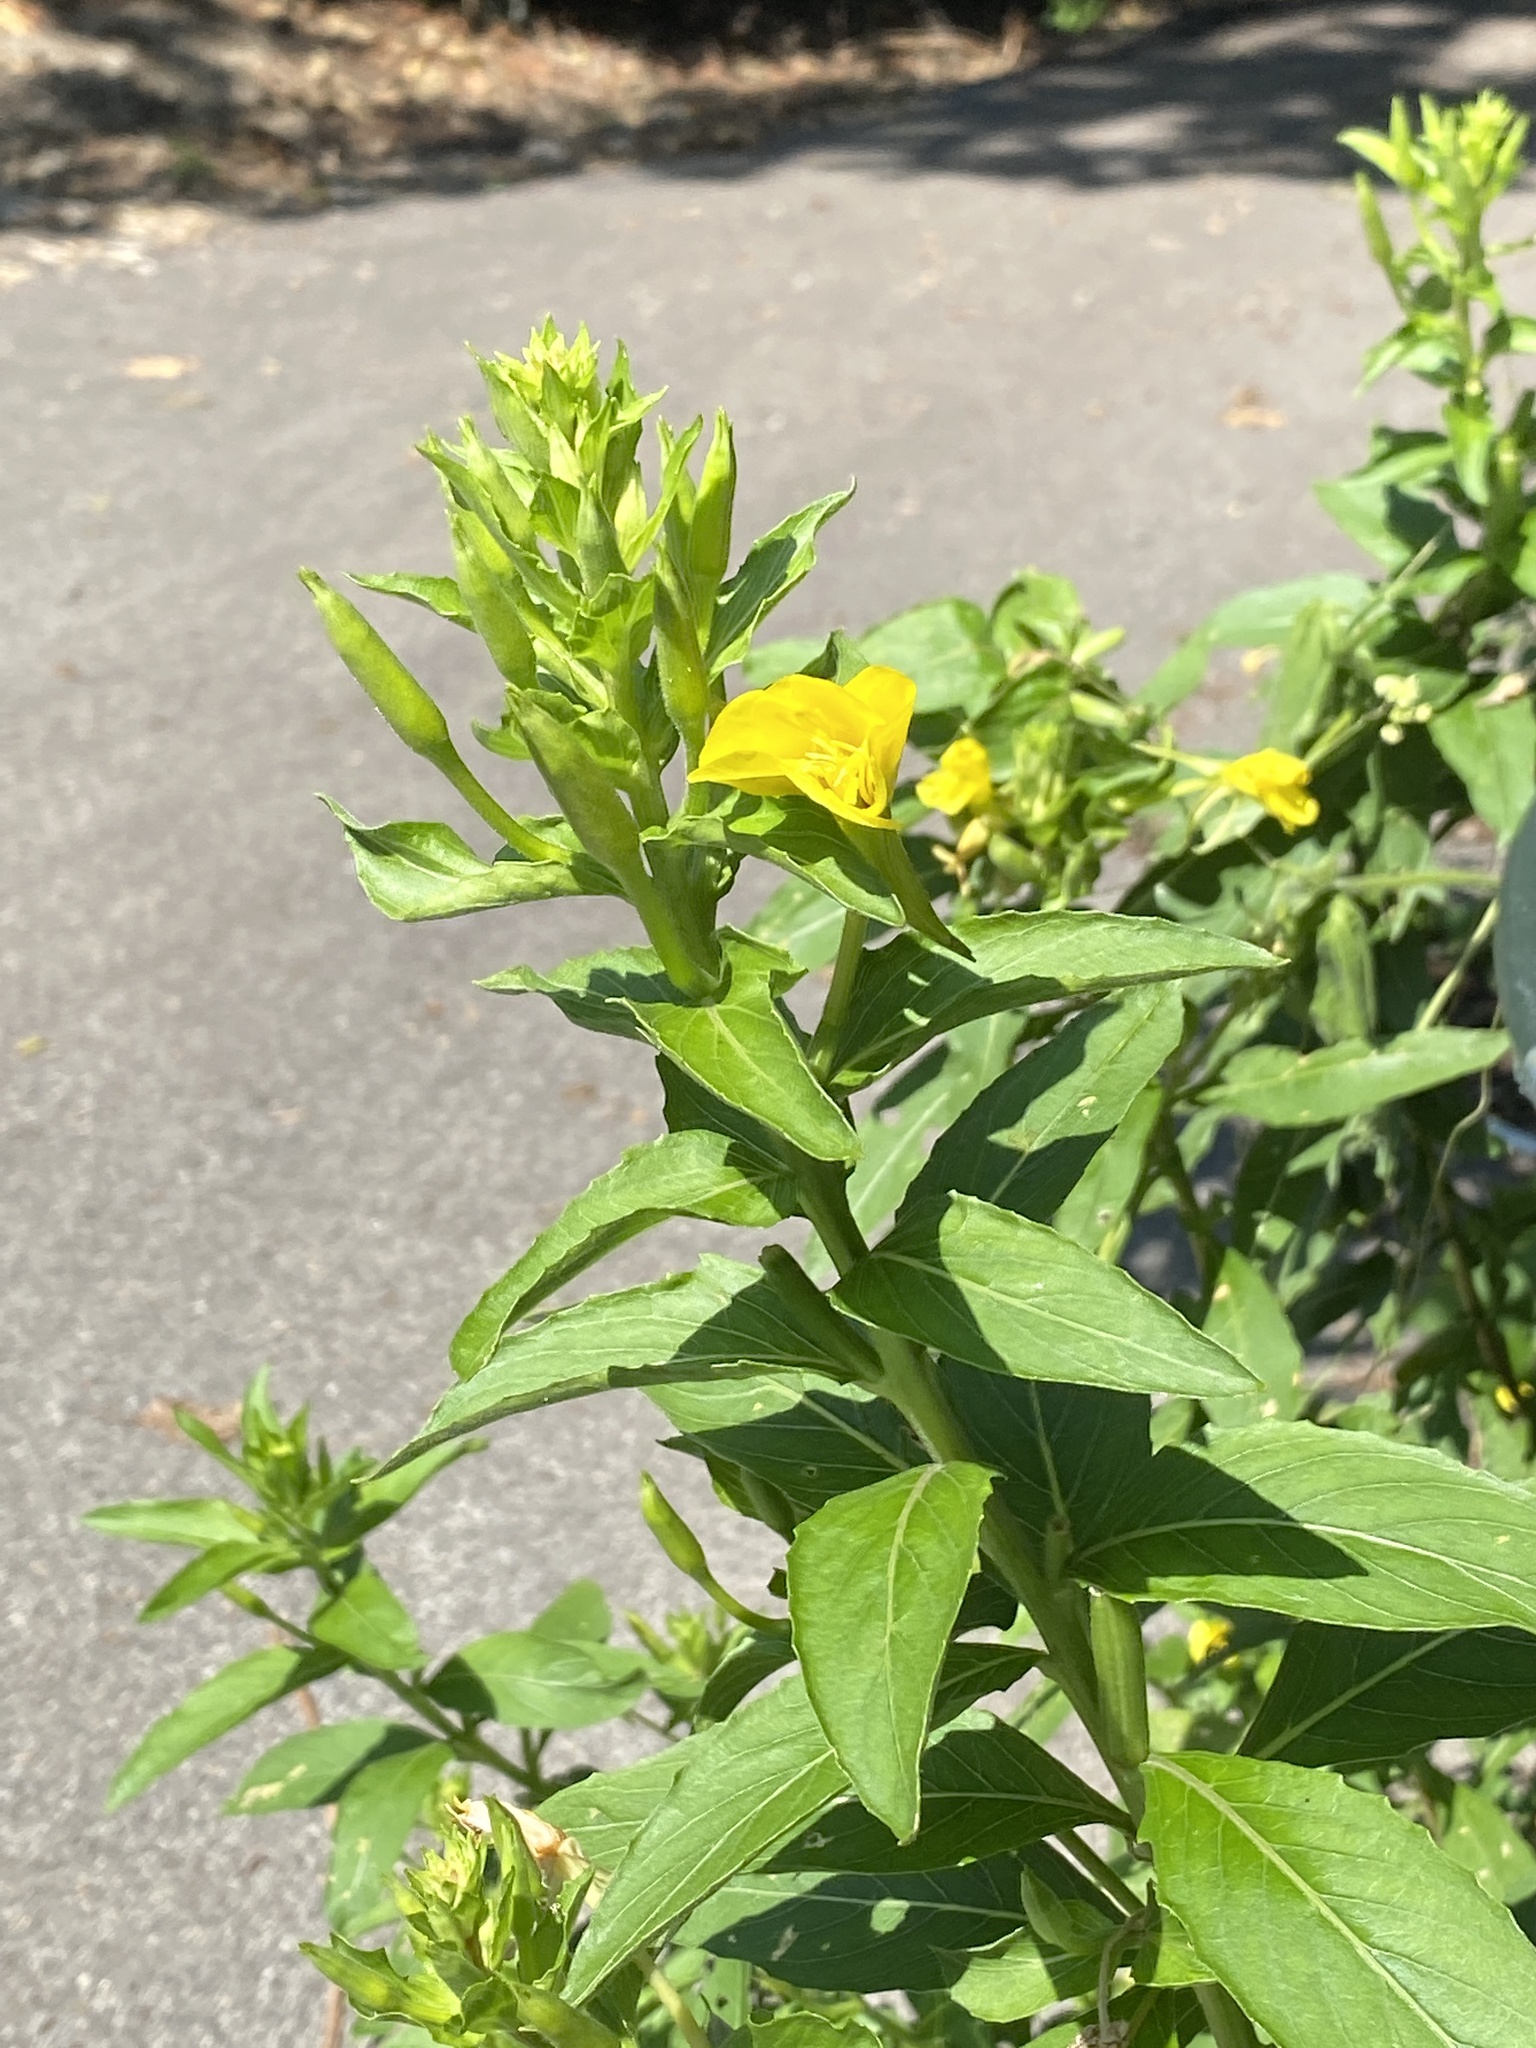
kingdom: Plantae
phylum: Tracheophyta
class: Magnoliopsida
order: Myrtales
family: Onagraceae
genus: Oenothera
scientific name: Oenothera biennis
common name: Common evening-primrose
